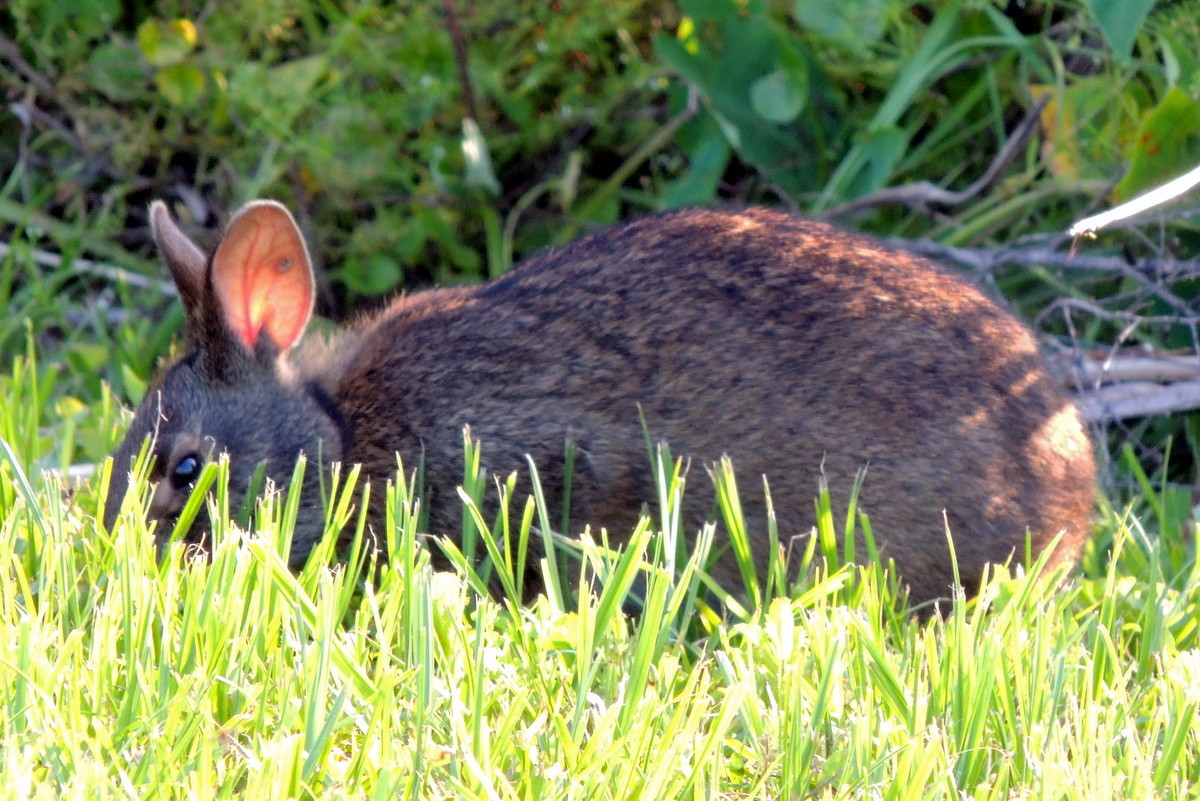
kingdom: Animalia
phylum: Chordata
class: Mammalia
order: Lagomorpha
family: Leporidae
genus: Sylvilagus
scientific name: Sylvilagus palustris
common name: Marsh rabbit
